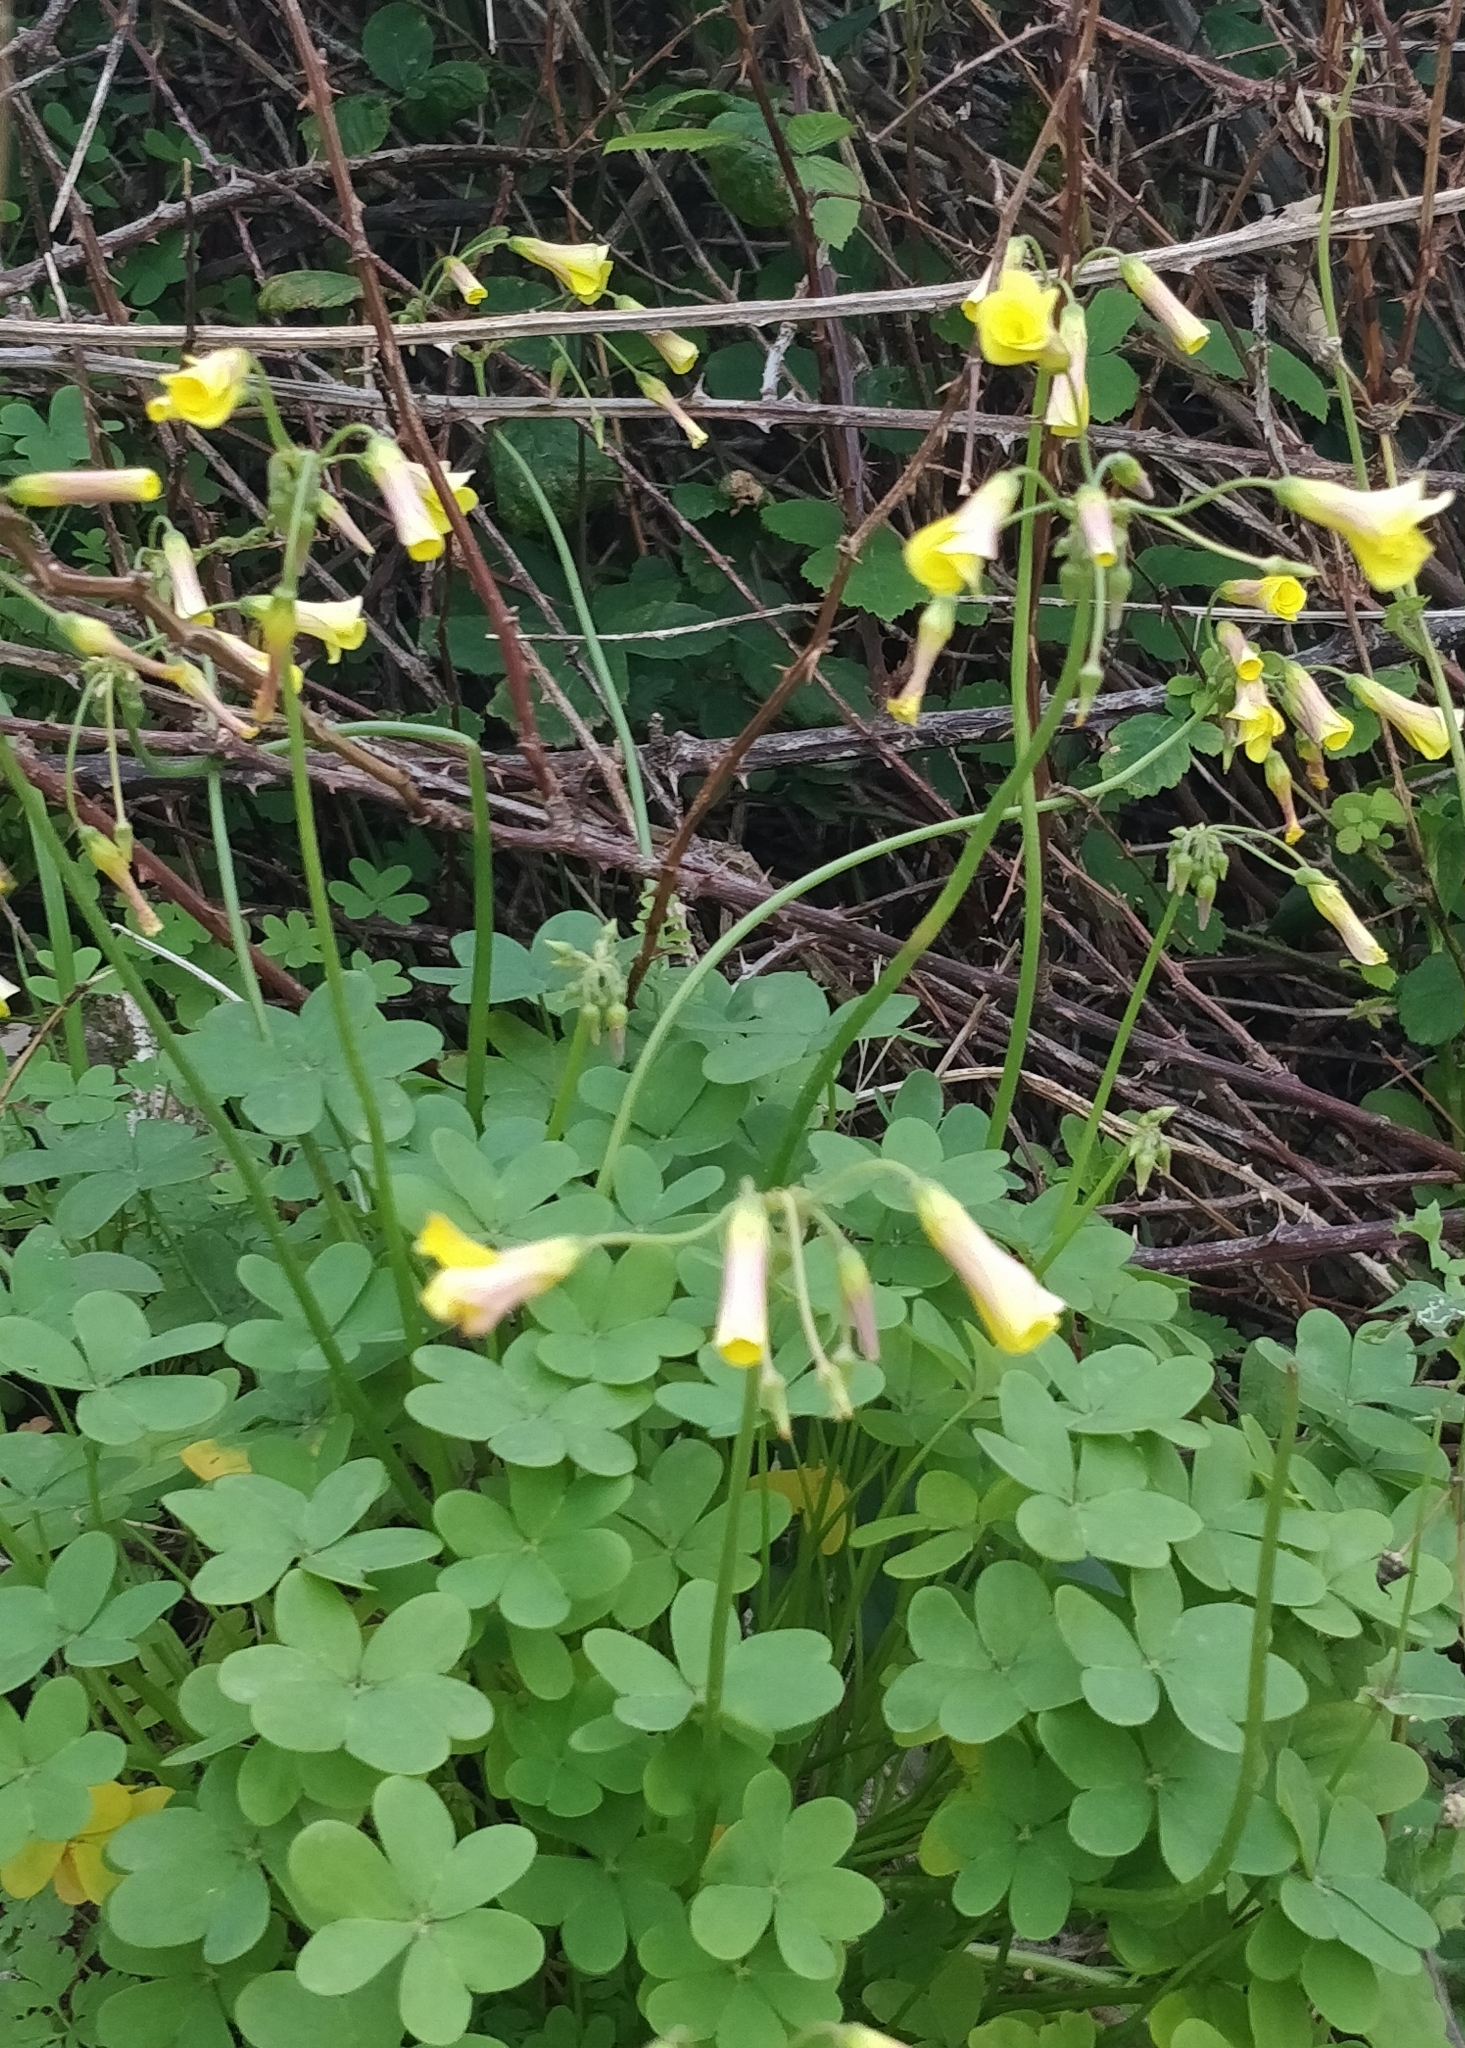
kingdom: Plantae
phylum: Tracheophyta
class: Magnoliopsida
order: Oxalidales
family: Oxalidaceae
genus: Oxalis
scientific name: Oxalis pes-caprae
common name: Bermuda-buttercup
